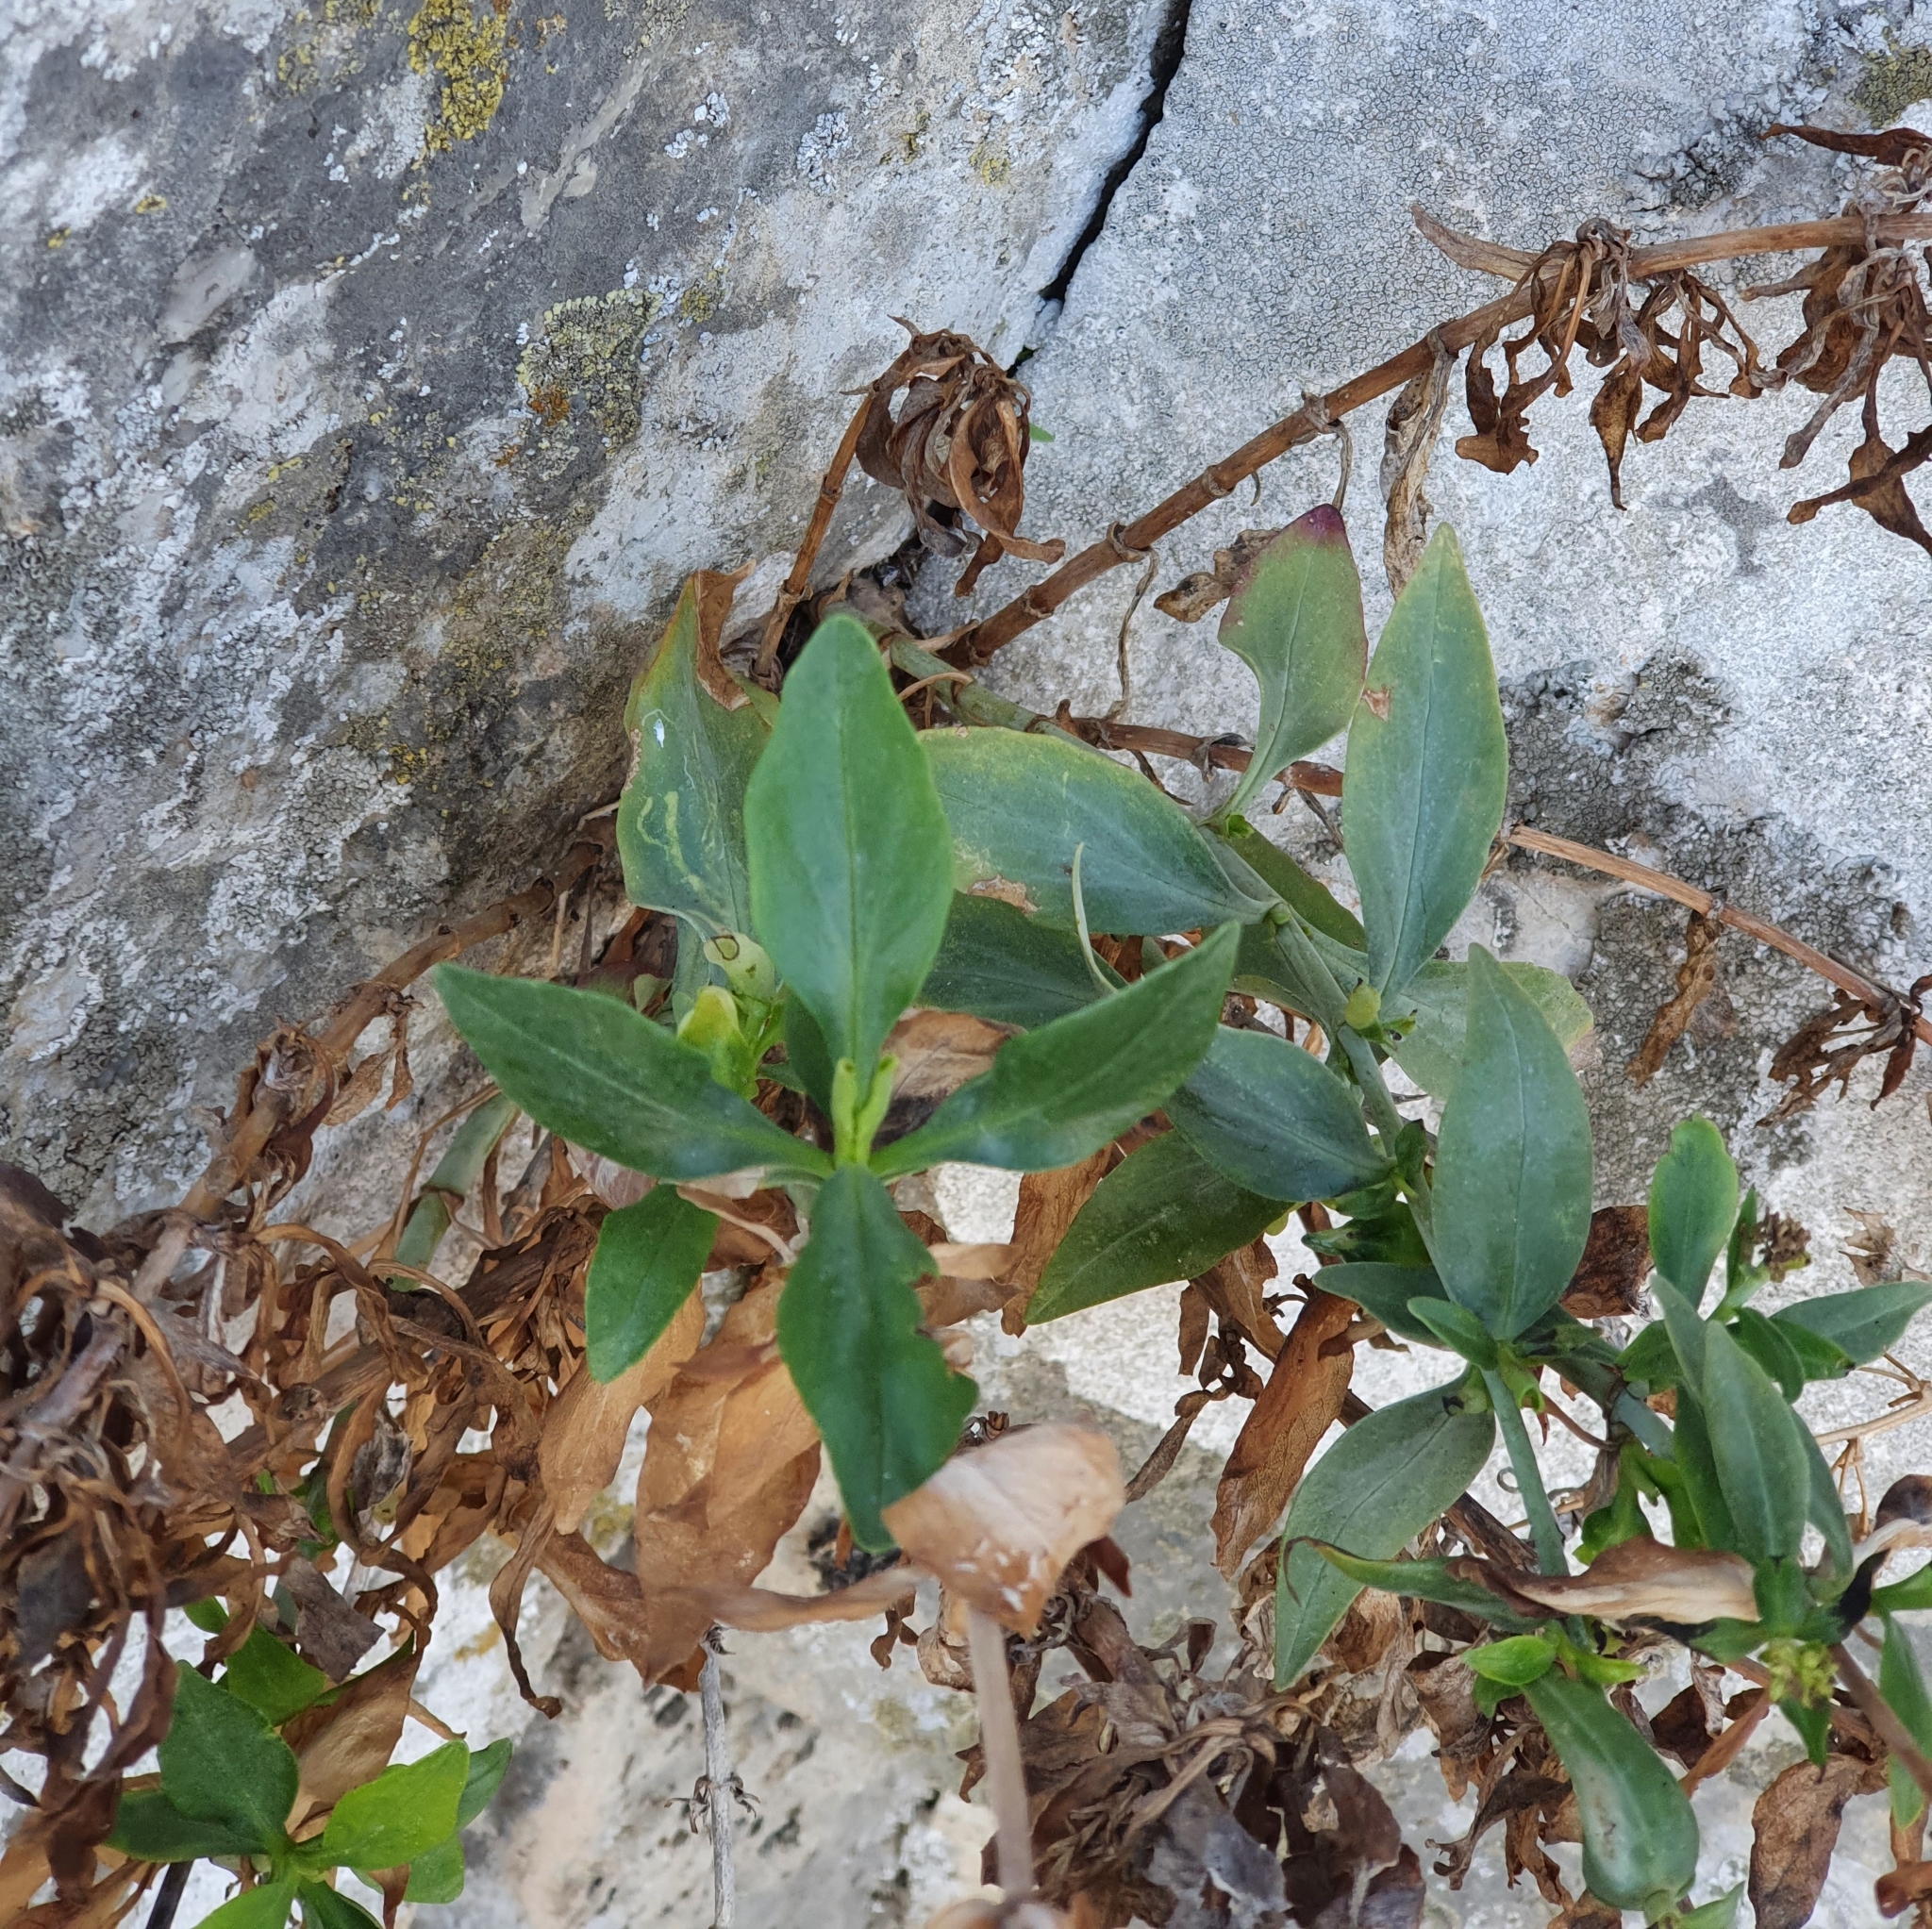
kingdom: Plantae
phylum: Tracheophyta
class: Magnoliopsida
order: Dipsacales
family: Caprifoliaceae
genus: Centranthus
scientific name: Centranthus ruber
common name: Red valerian
